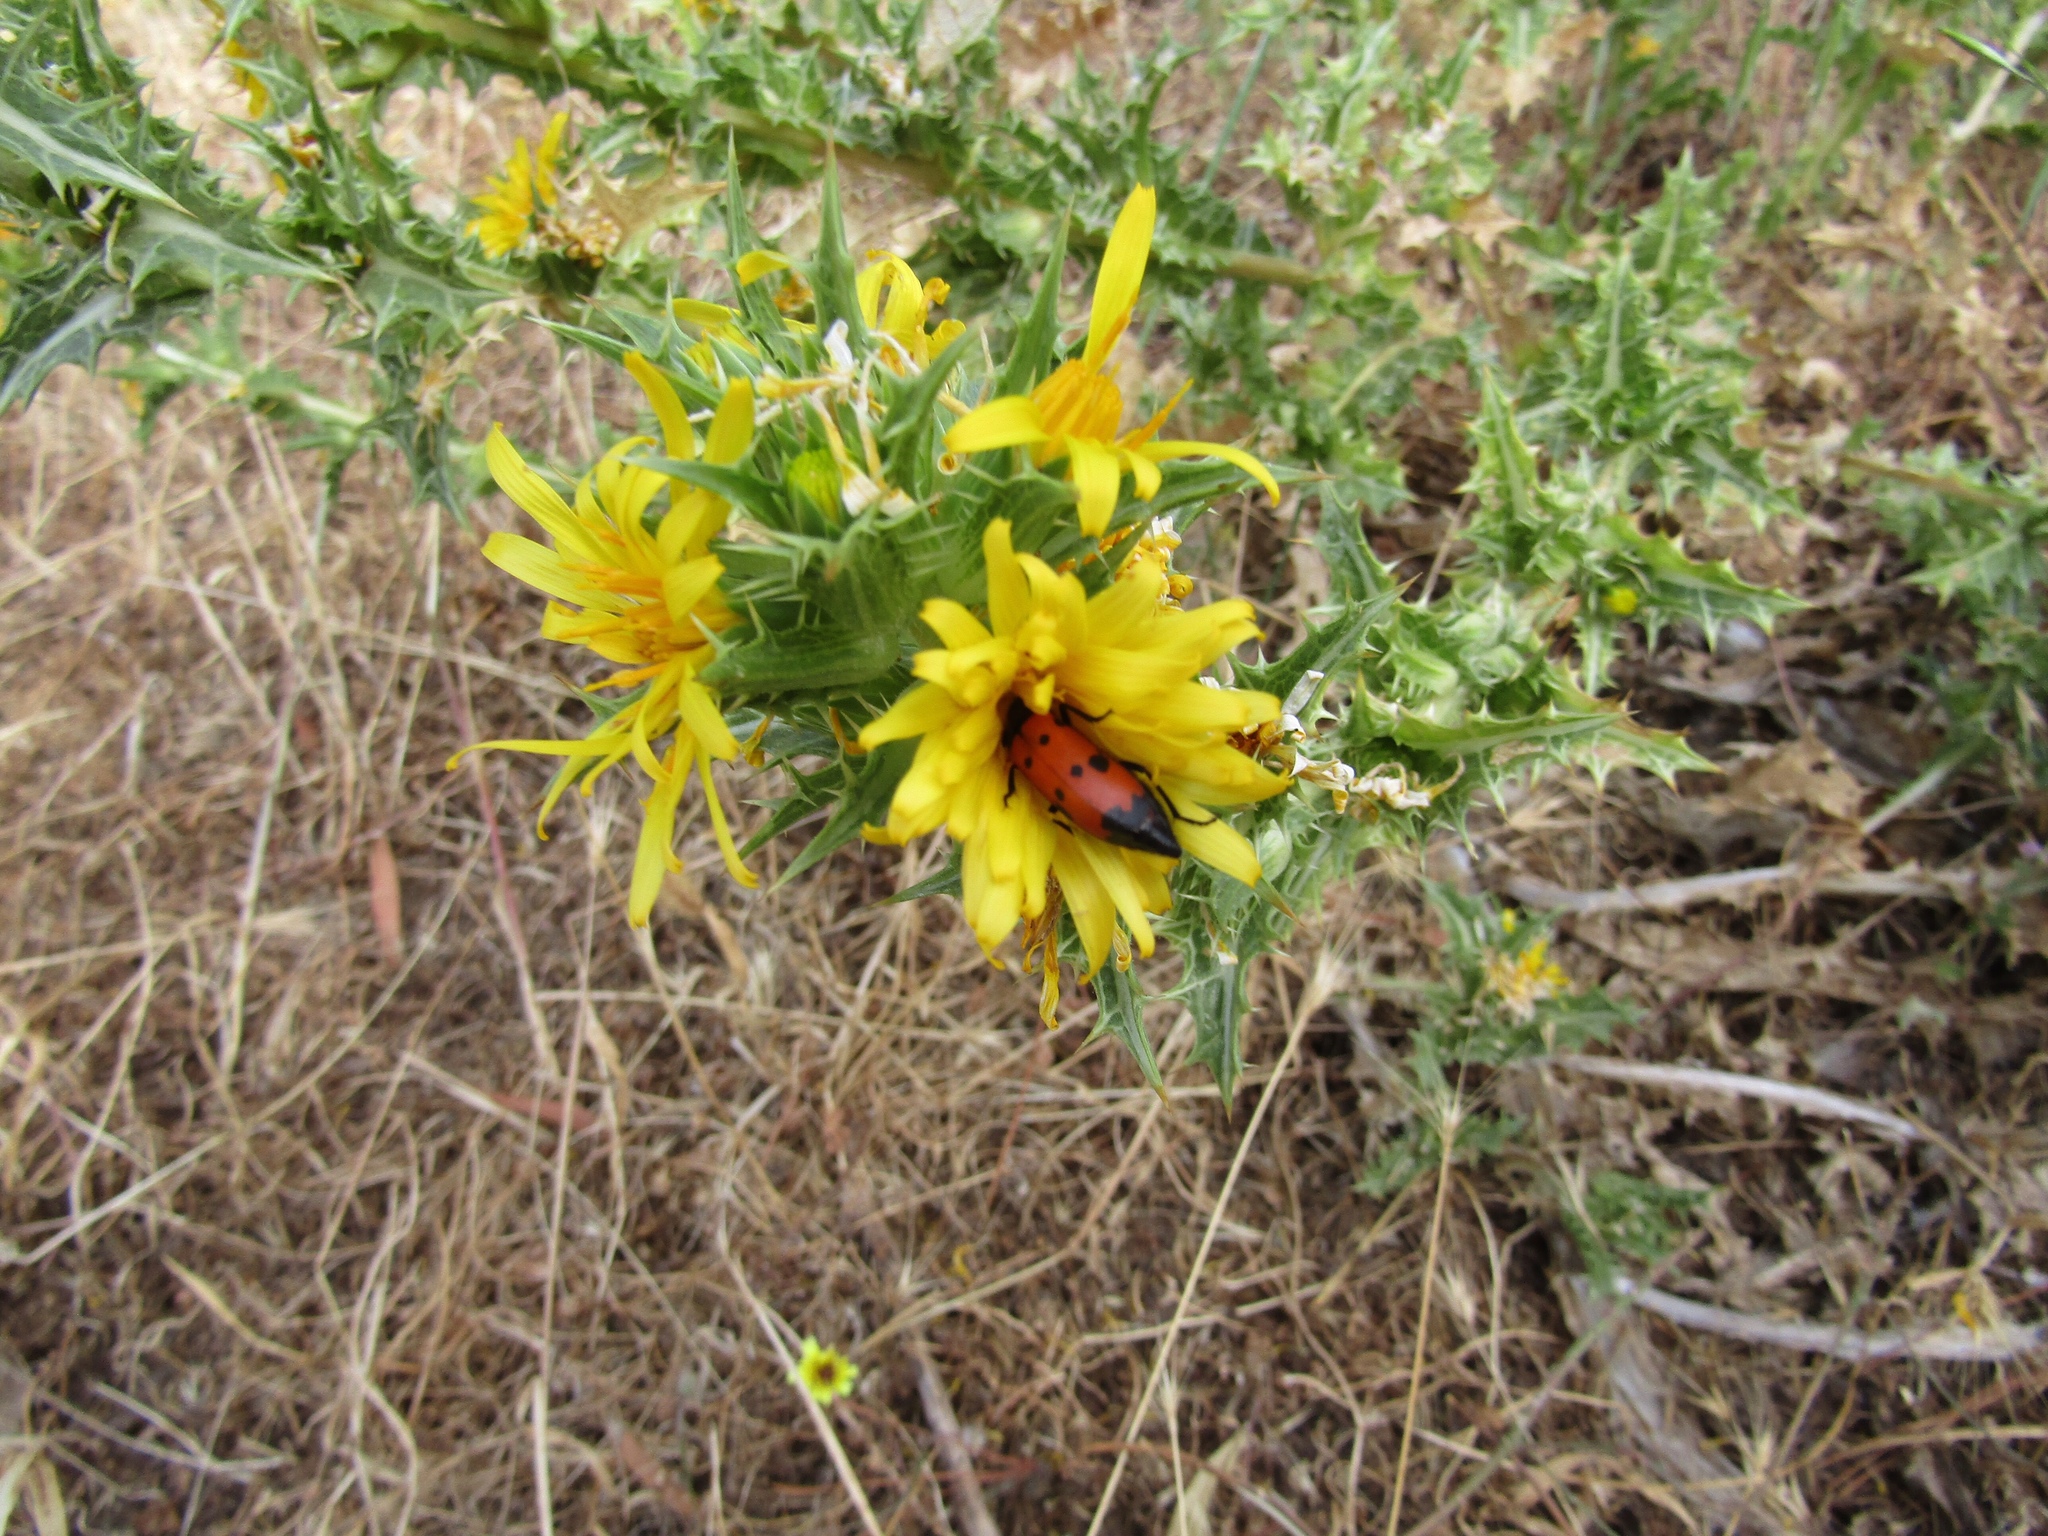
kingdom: Animalia
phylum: Arthropoda
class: Insecta
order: Coleoptera
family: Meloidae
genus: Mylabris
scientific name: Mylabris quadripunctata
